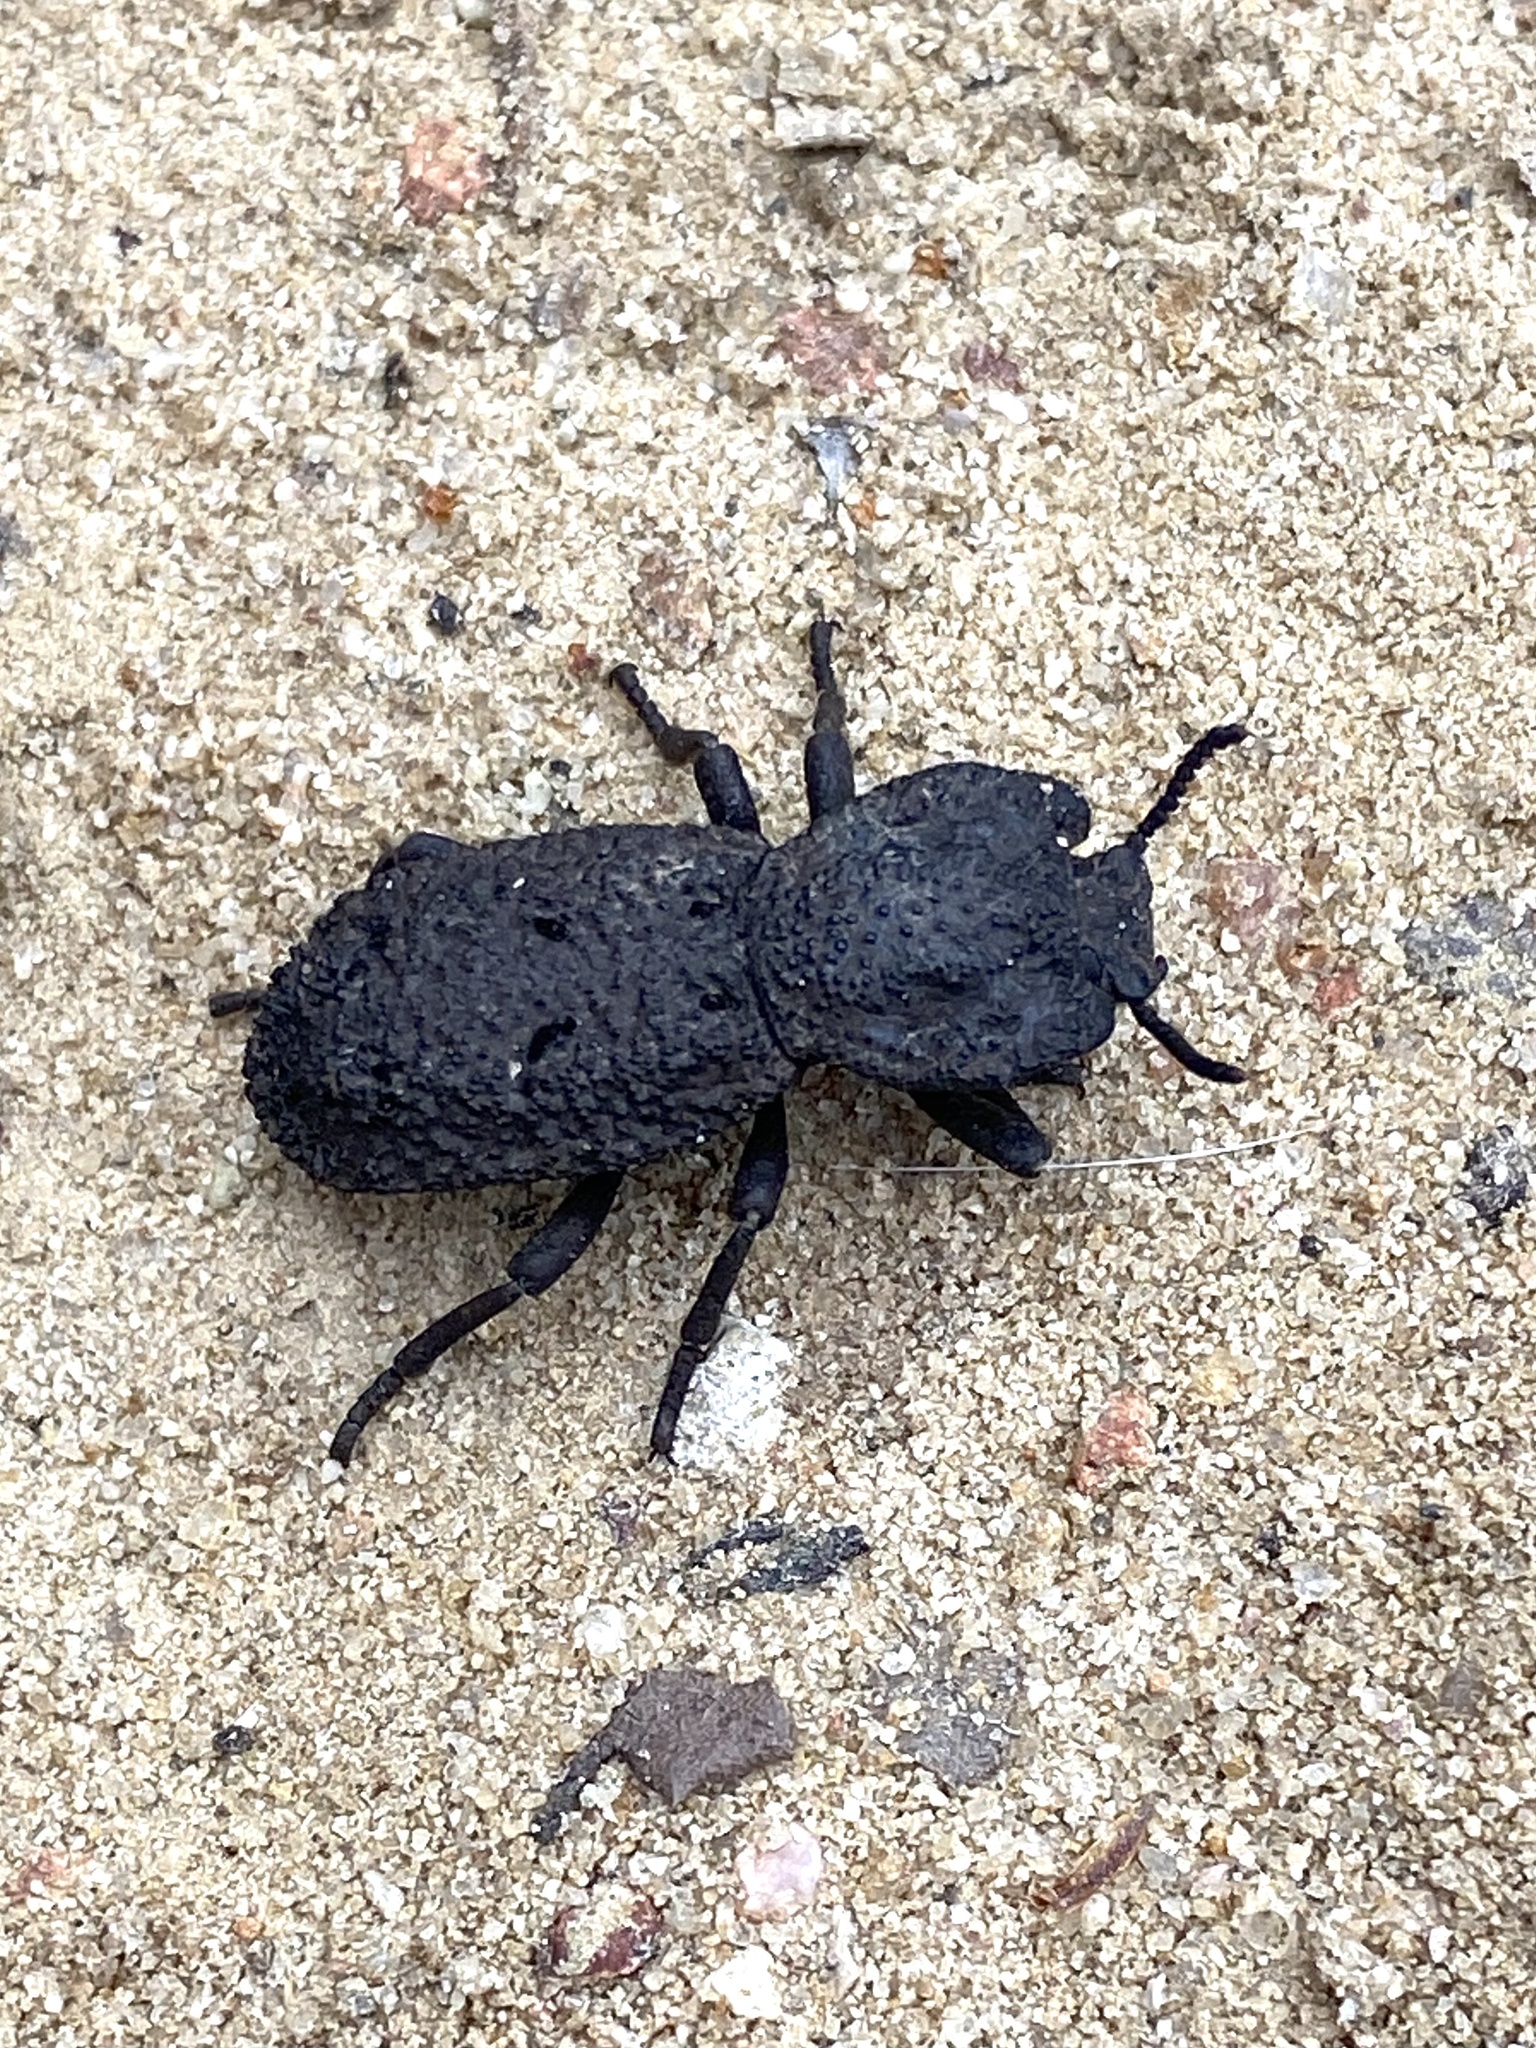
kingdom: Animalia
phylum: Arthropoda
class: Insecta
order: Coleoptera
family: Zopheridae
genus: Phloeodes
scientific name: Phloeodes diabolicus
